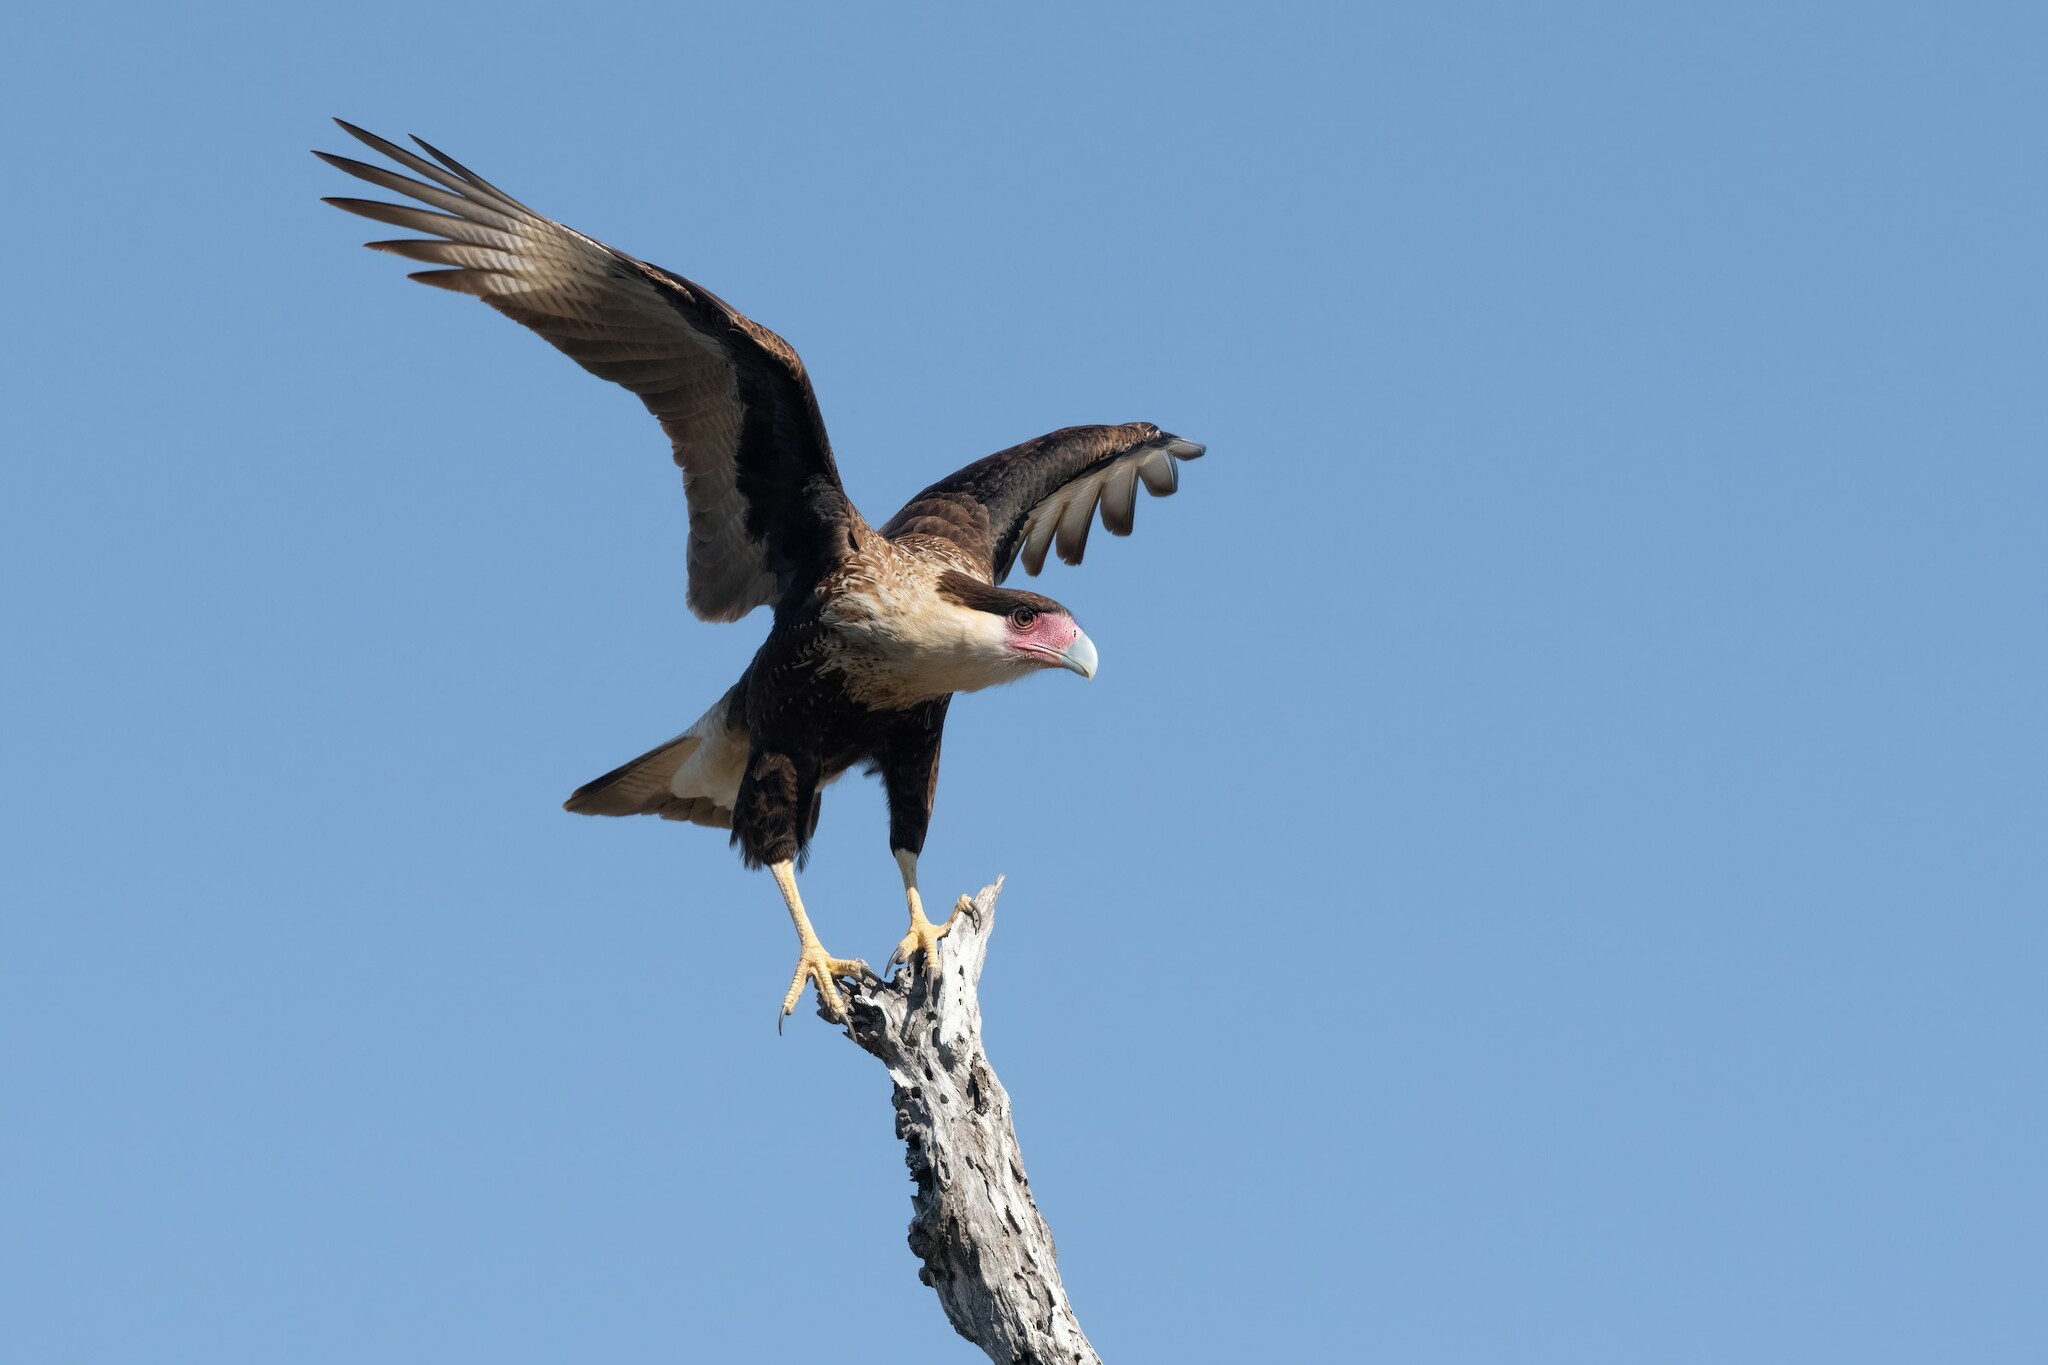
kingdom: Animalia
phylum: Chordata
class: Aves
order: Falconiformes
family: Falconidae
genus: Caracara
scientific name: Caracara plancus
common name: Southern caracara
